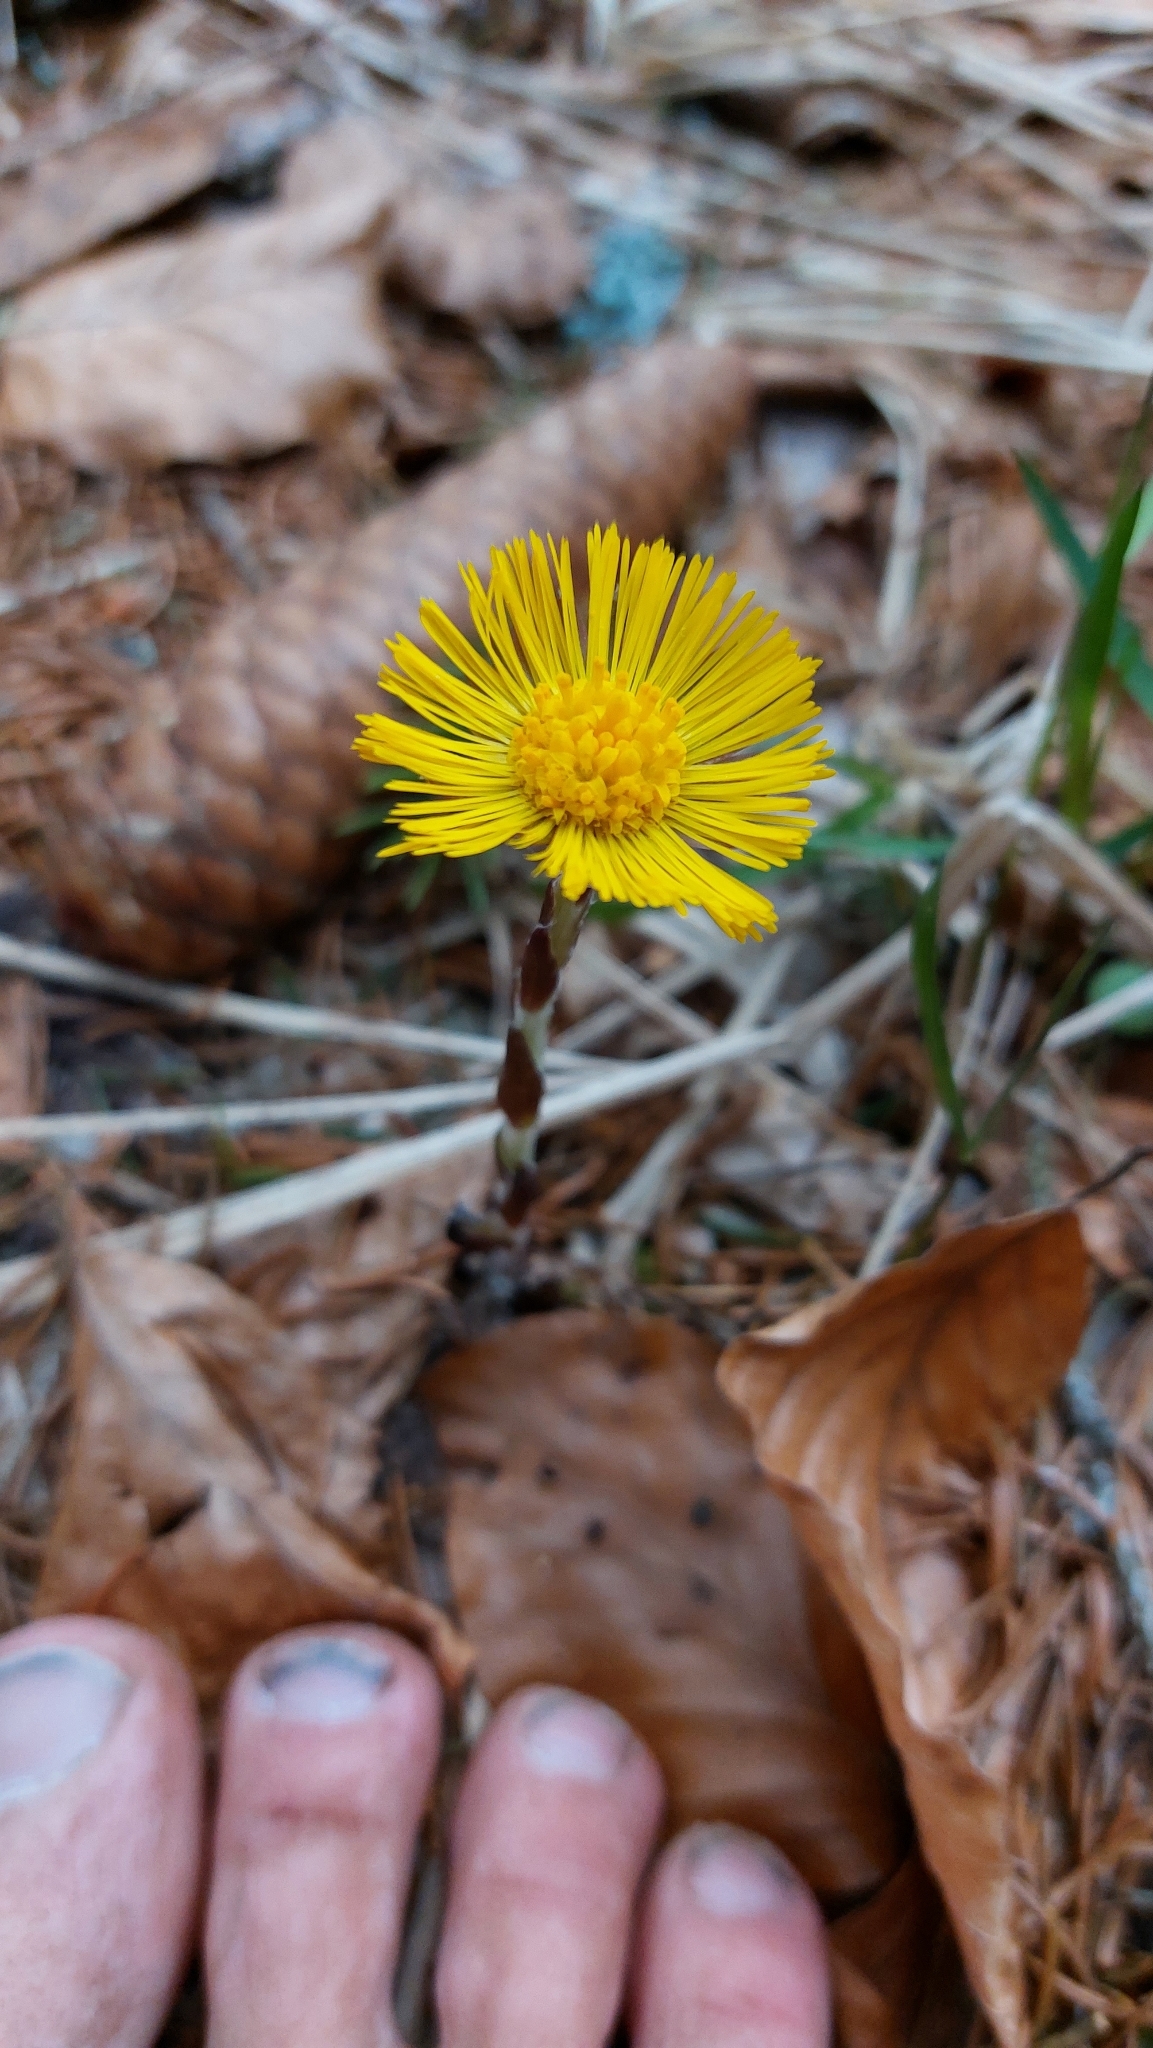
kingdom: Plantae
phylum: Tracheophyta
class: Magnoliopsida
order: Asterales
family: Asteraceae
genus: Tussilago
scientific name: Tussilago farfara
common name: Coltsfoot
